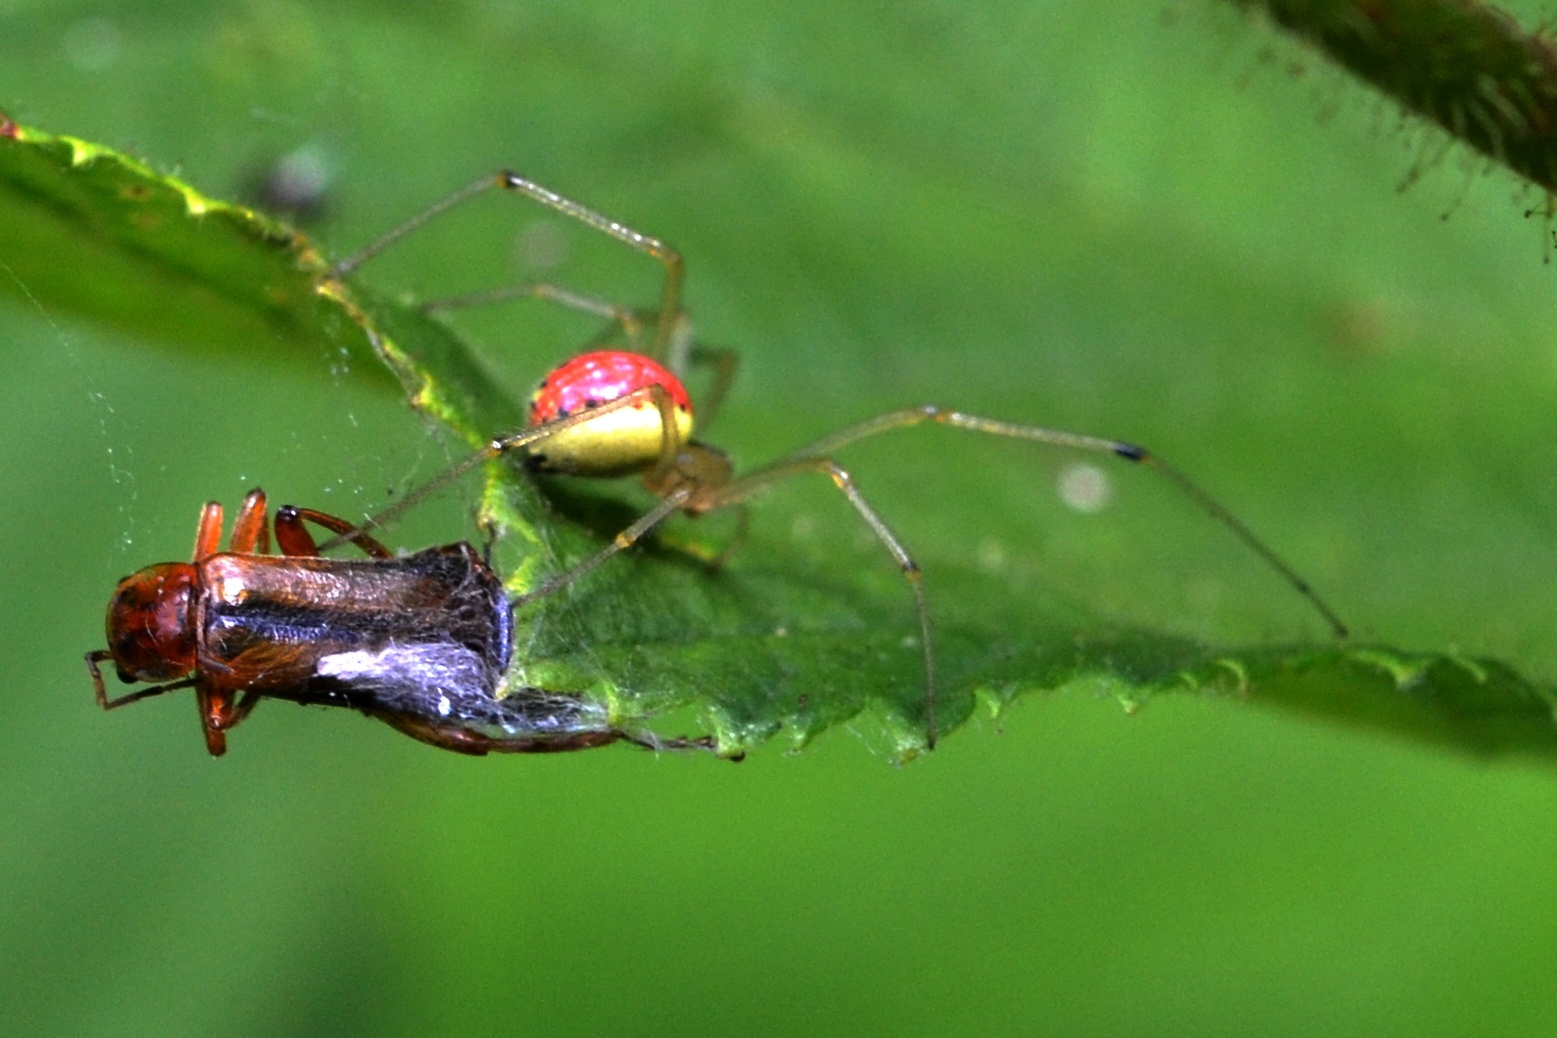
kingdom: Animalia
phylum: Arthropoda
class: Arachnida
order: Araneae
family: Theridiidae
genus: Enoplognatha
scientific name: Enoplognatha ovata
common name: Common candy-striped spider
